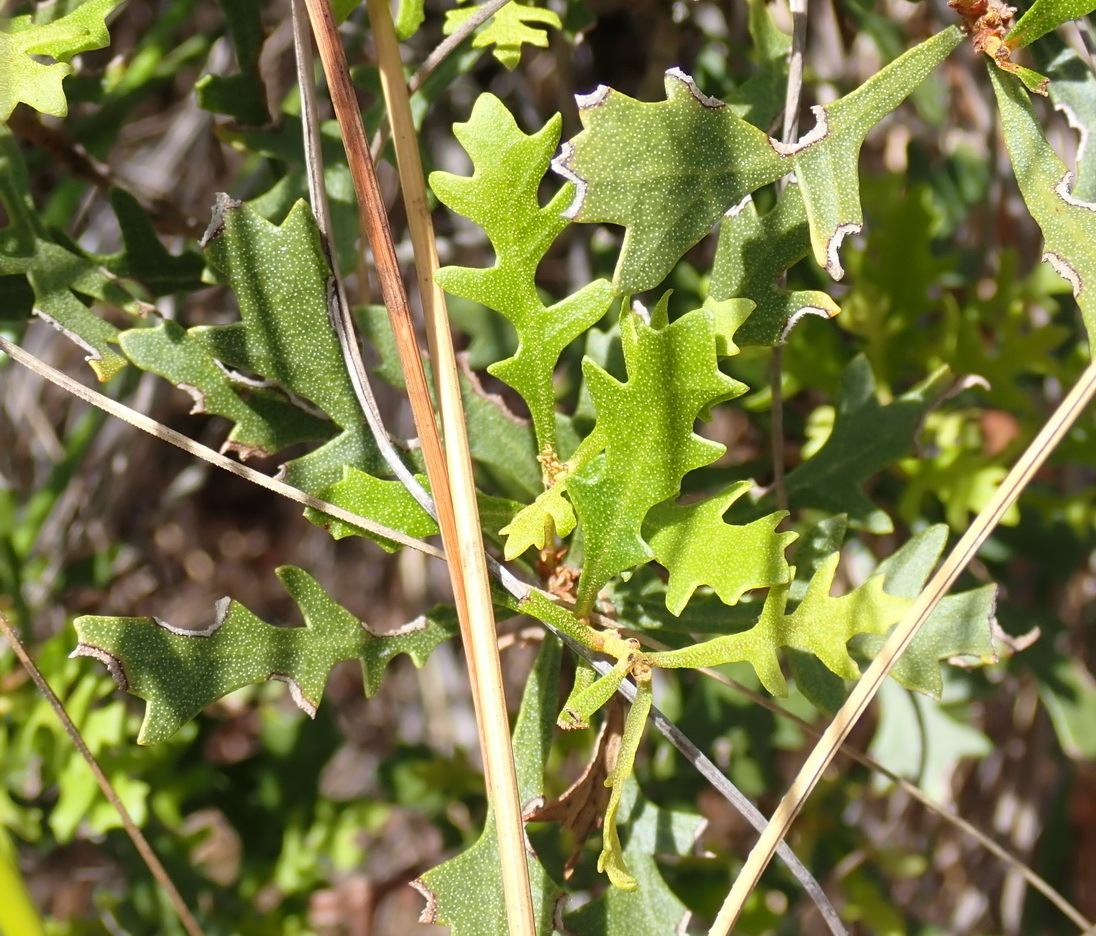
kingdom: Plantae
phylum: Tracheophyta
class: Magnoliopsida
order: Fagales
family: Myricaceae
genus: Morella
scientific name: Morella quercifolia
